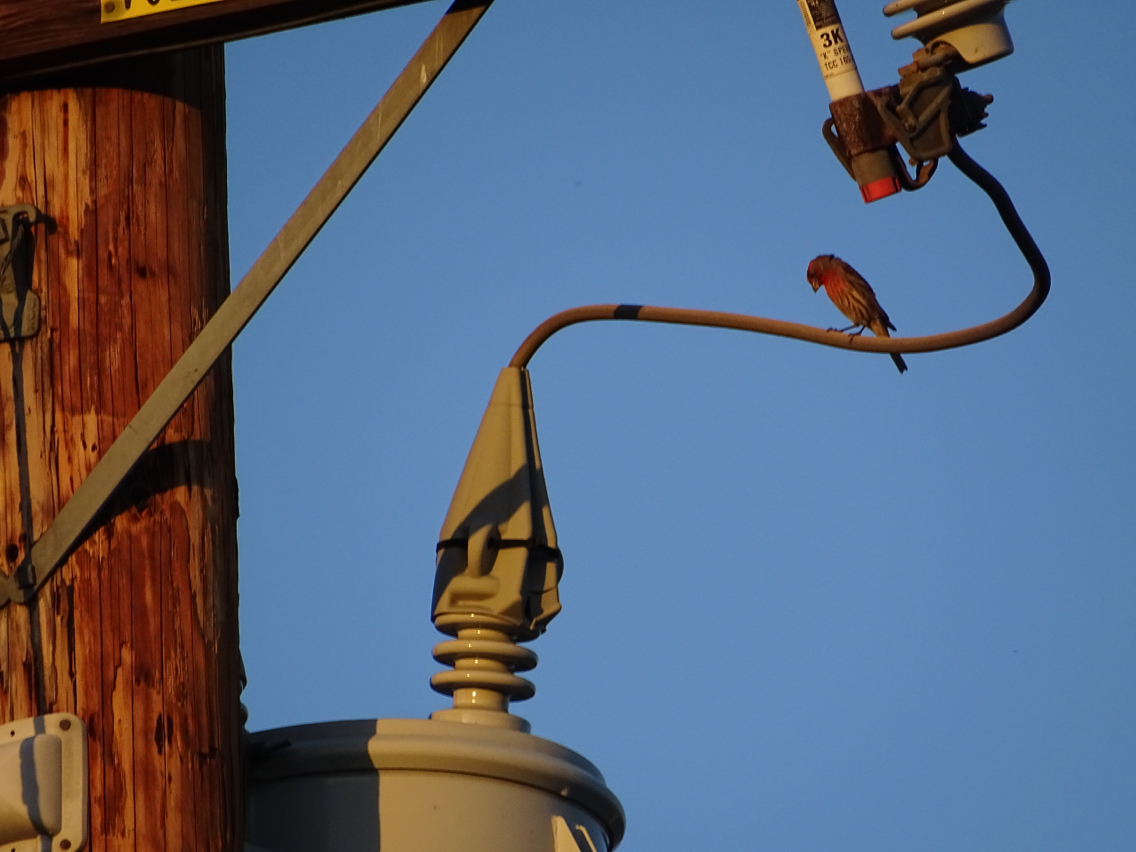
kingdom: Animalia
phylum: Chordata
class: Aves
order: Passeriformes
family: Fringillidae
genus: Haemorhous
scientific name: Haemorhous mexicanus
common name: House finch
